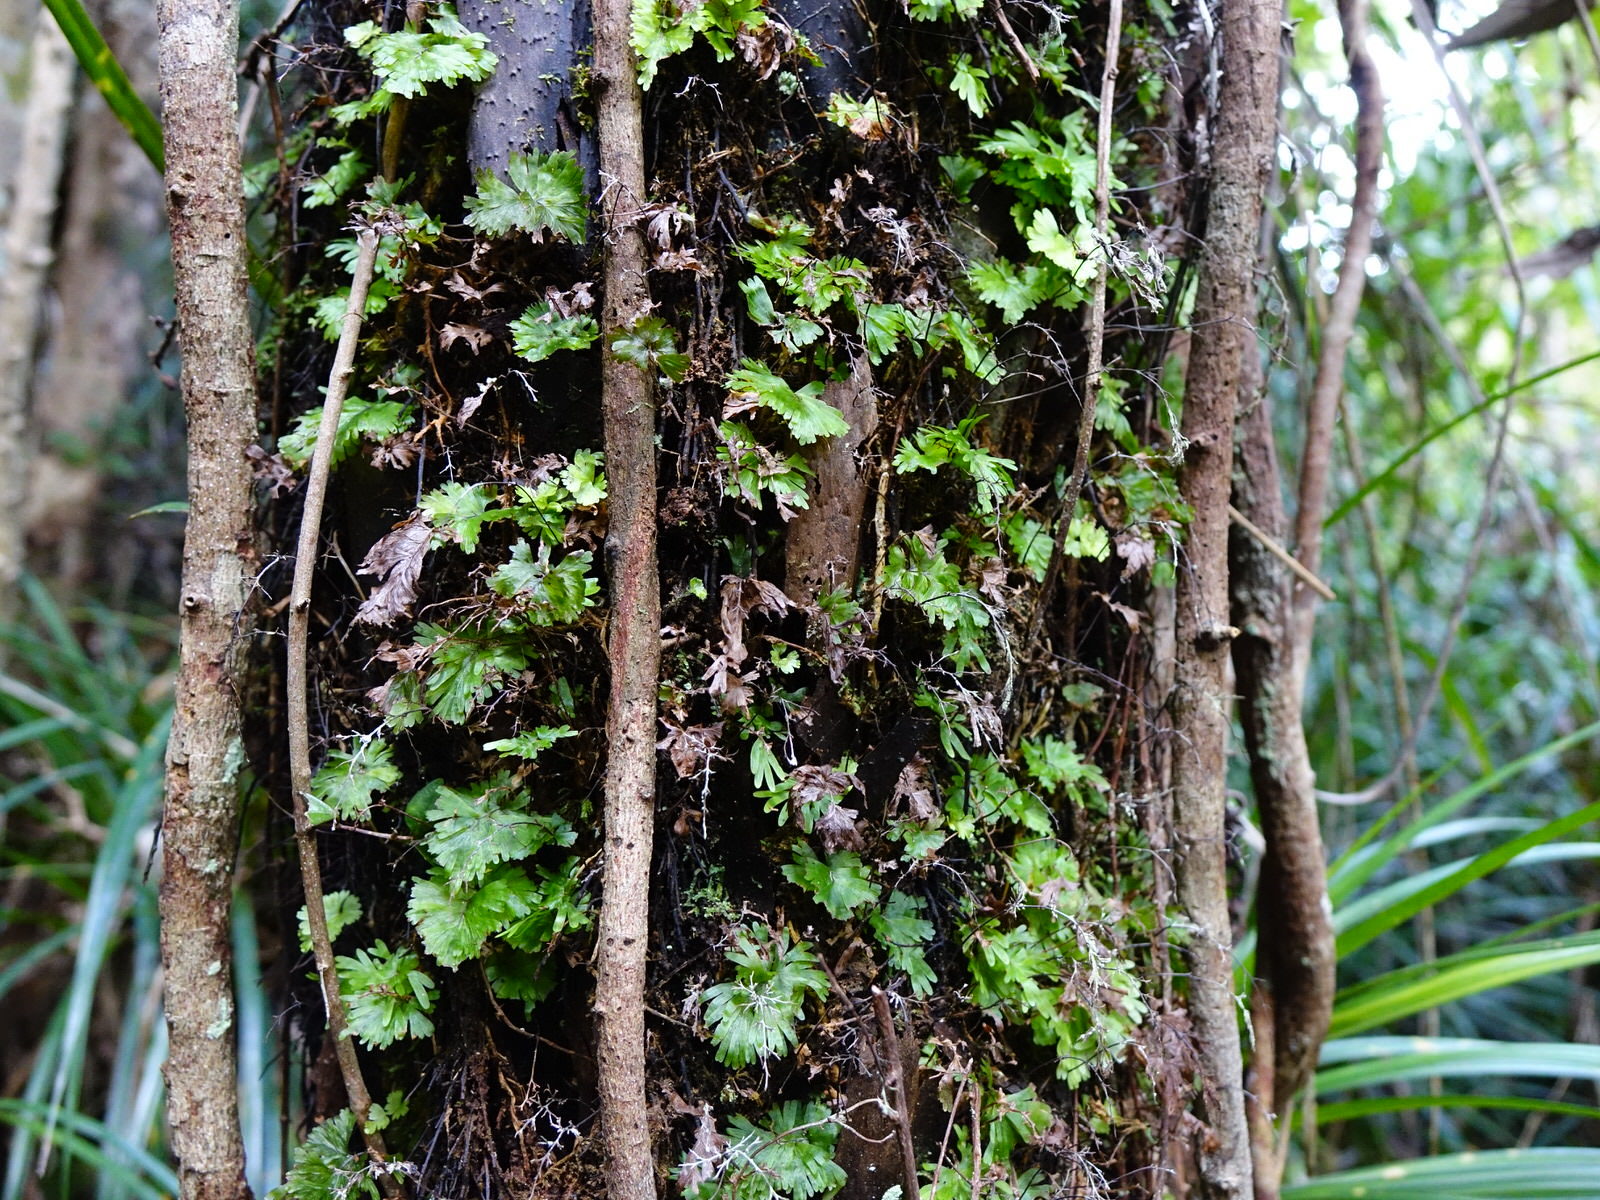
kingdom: Plantae
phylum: Tracheophyta
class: Polypodiopsida
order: Hymenophyllales
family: Hymenophyllaceae
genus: Hymenophyllum
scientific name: Hymenophyllum flabellatum
